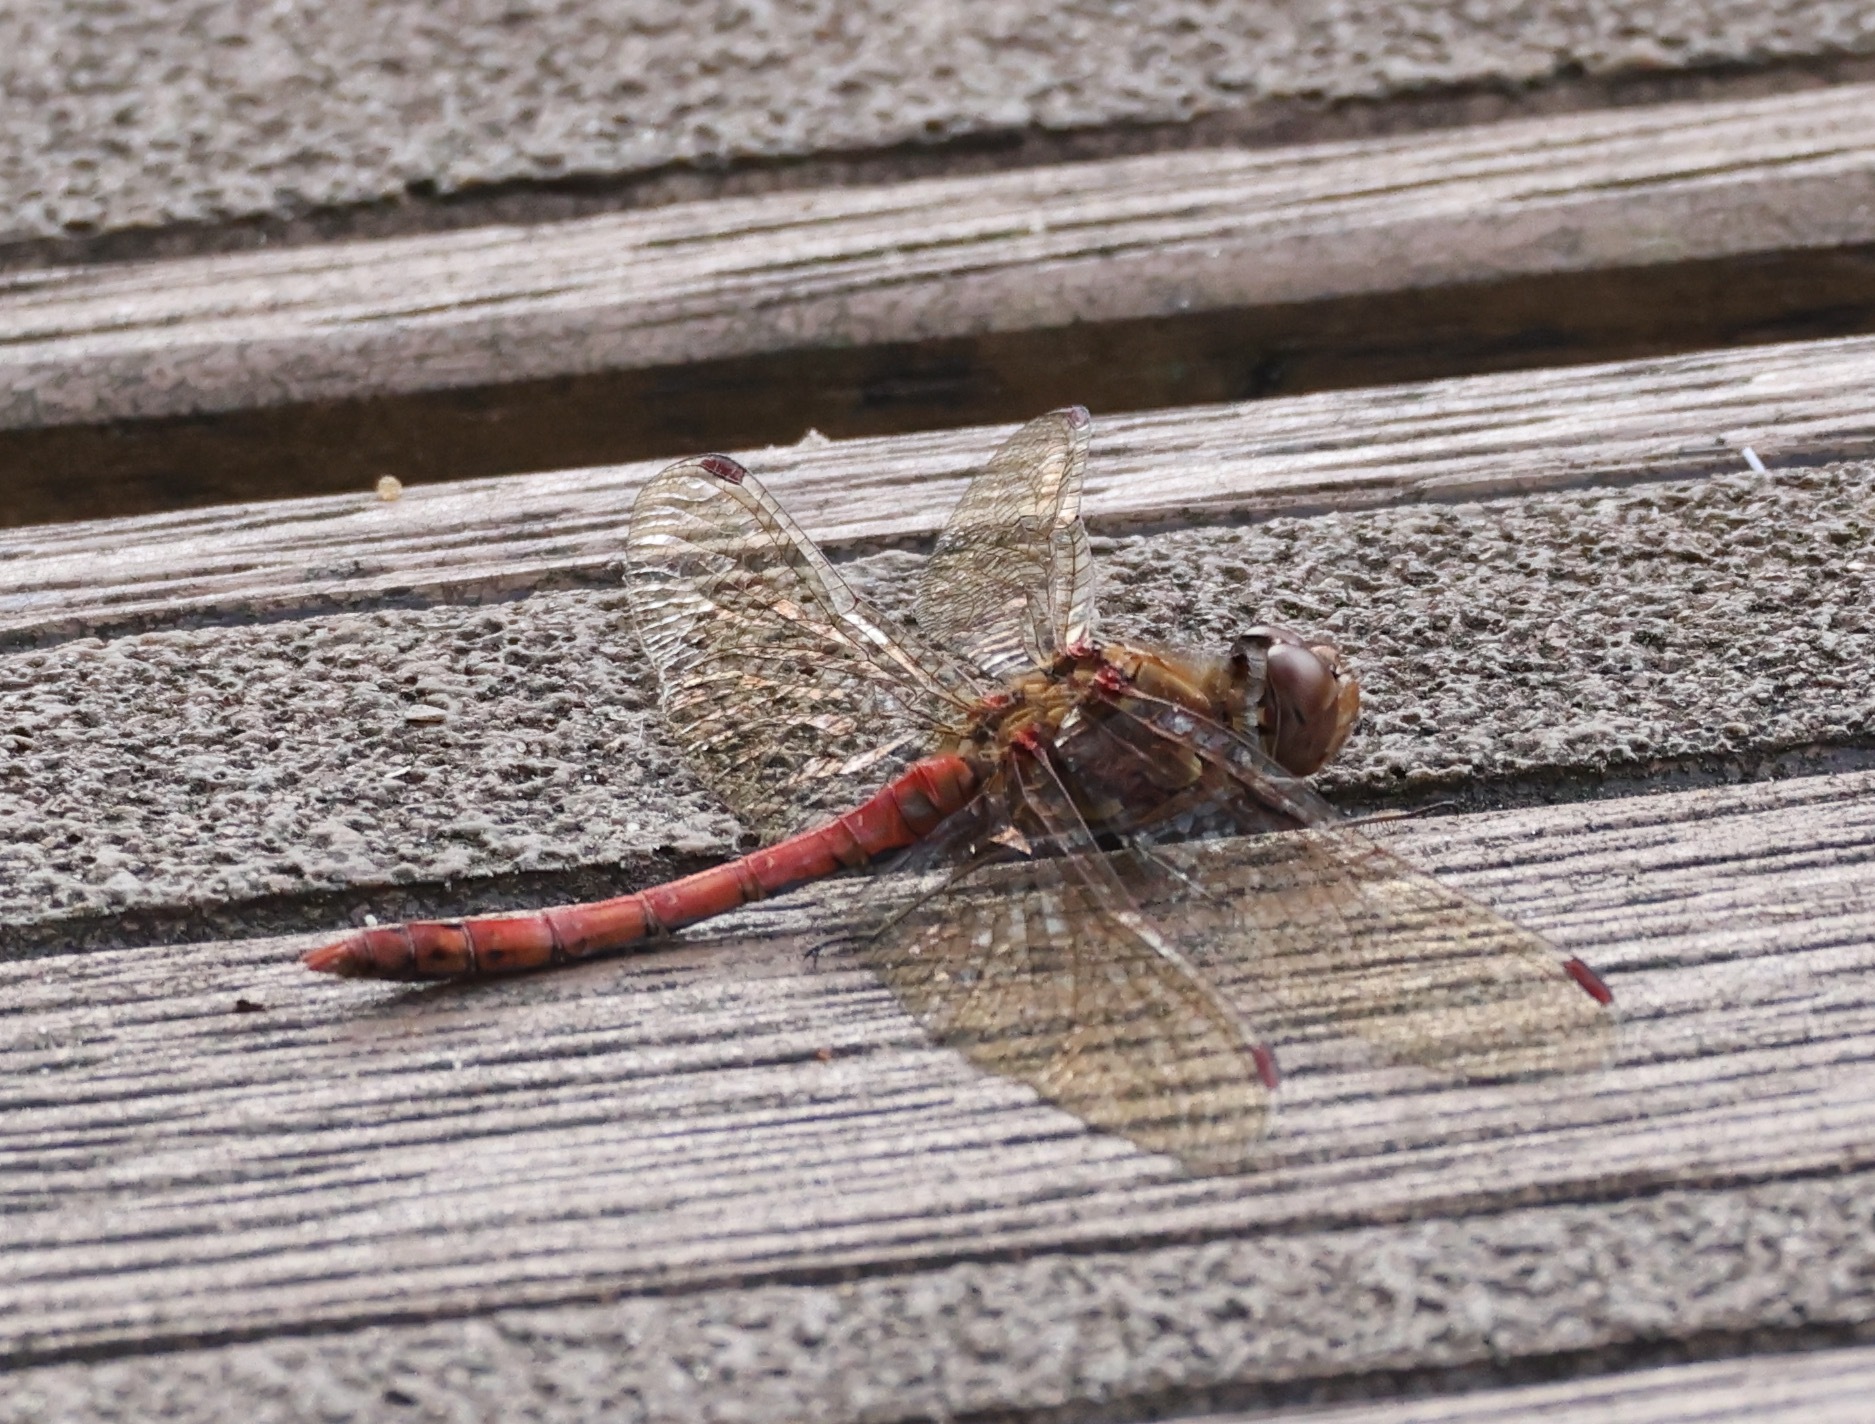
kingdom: Animalia
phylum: Arthropoda
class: Insecta
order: Odonata
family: Libellulidae
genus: Sympetrum
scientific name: Sympetrum striolatum
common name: Common darter
